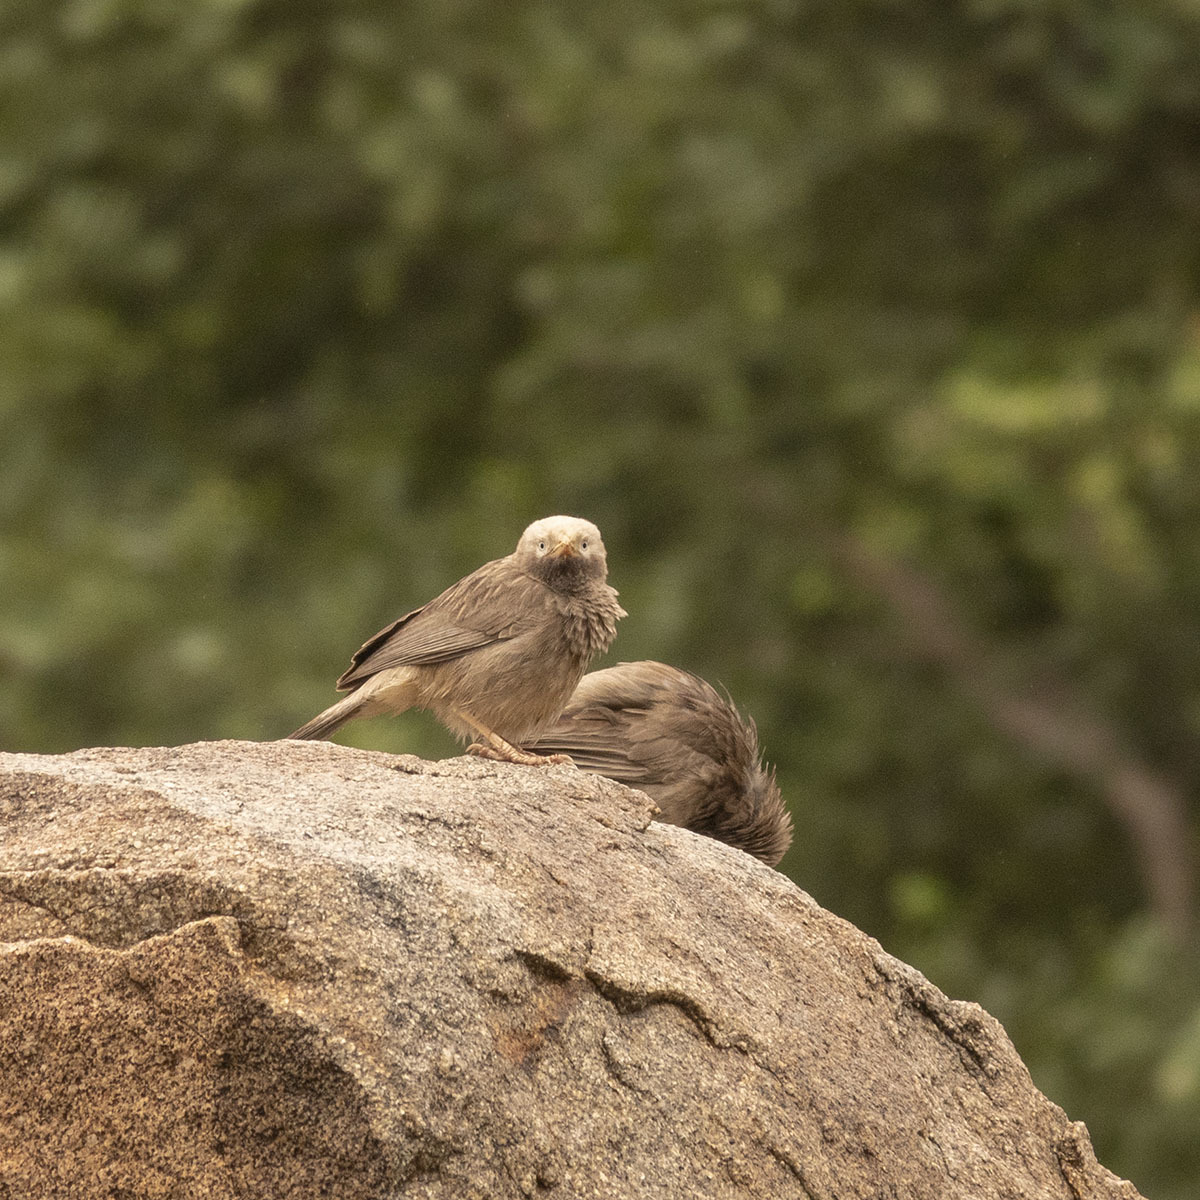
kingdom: Animalia
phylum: Chordata
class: Aves
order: Passeriformes
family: Leiothrichidae
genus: Turdoides
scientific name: Turdoides affinis
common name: Yellow-billed babbler
